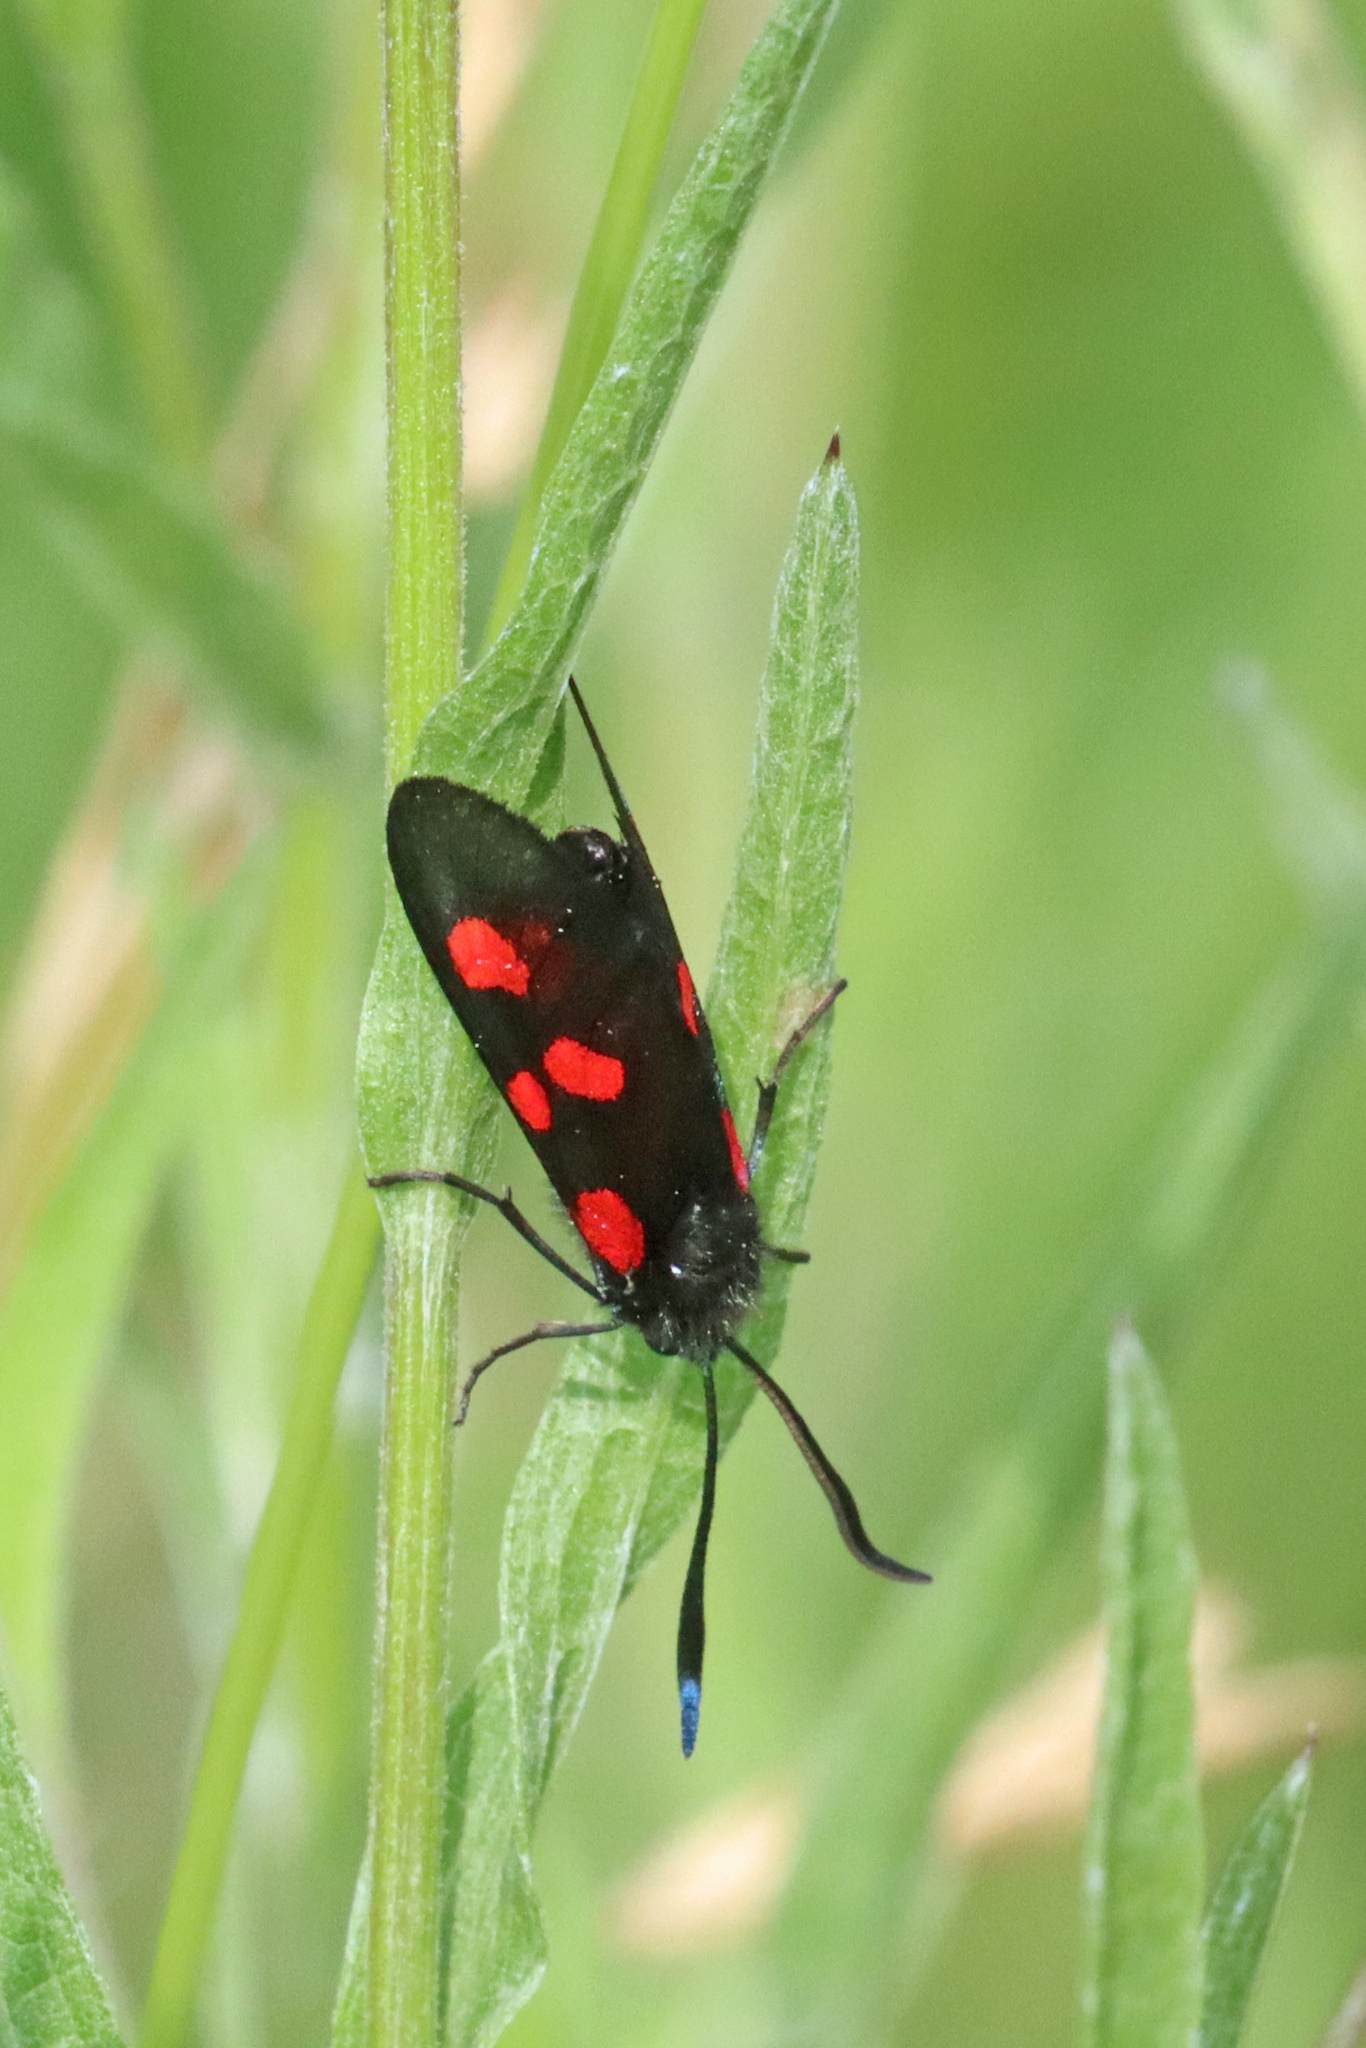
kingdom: Animalia
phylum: Arthropoda
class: Insecta
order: Lepidoptera
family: Zygaenidae
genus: Zygaena
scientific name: Zygaena lonicerae
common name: Narrow-bordered five-spot burnet
